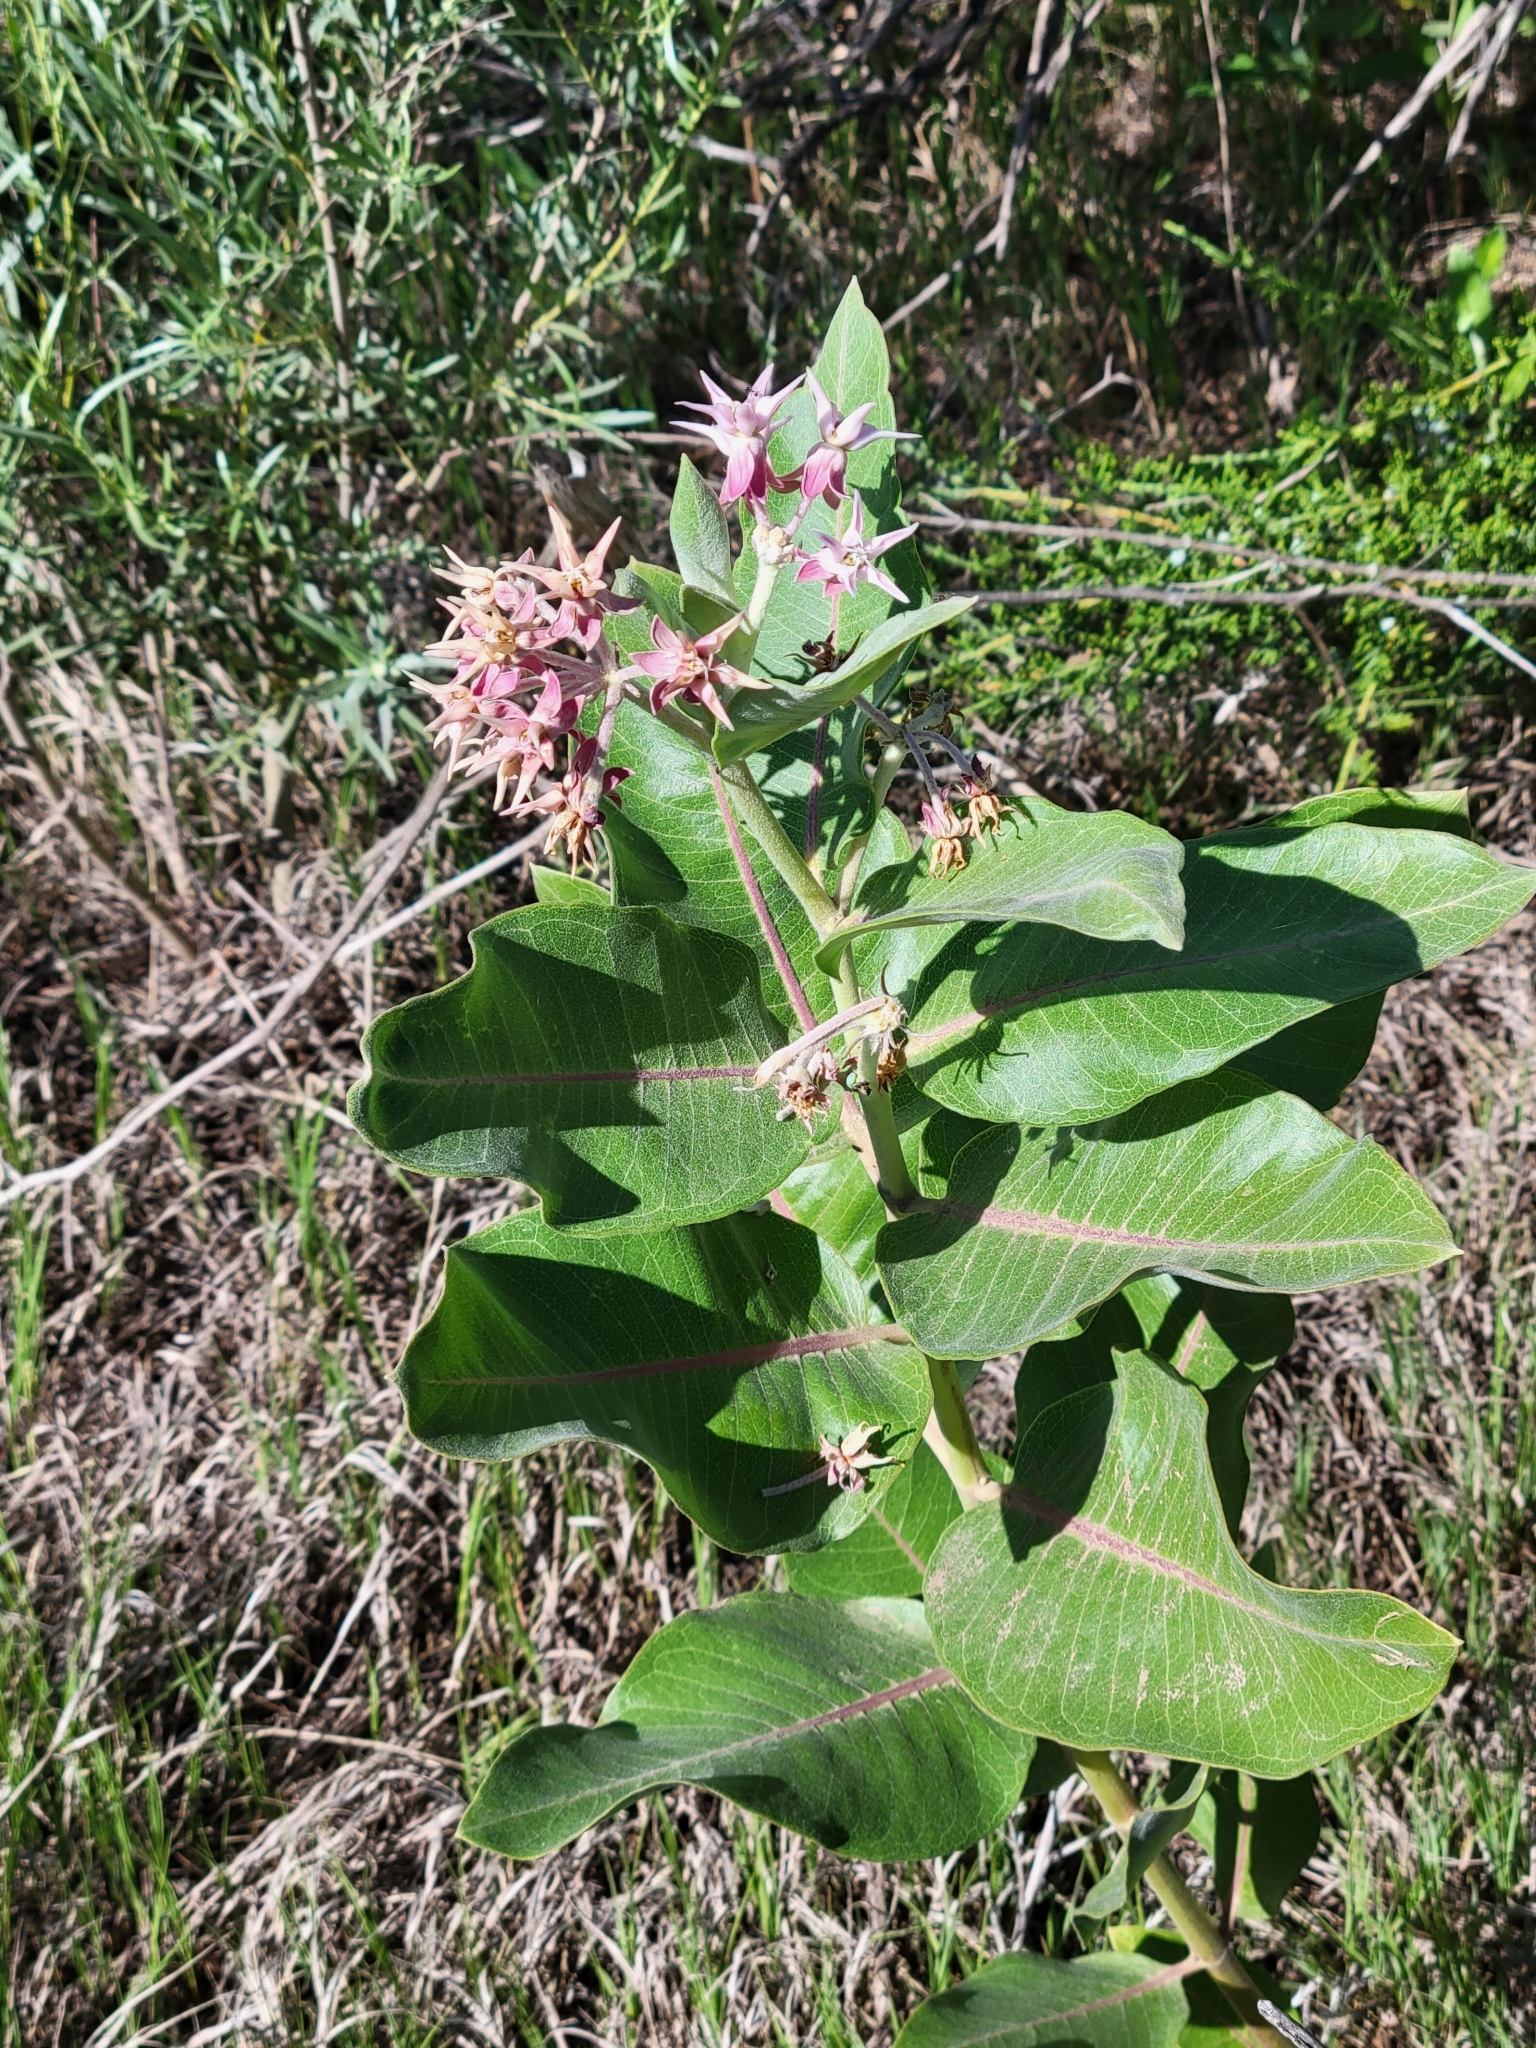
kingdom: Plantae
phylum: Tracheophyta
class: Magnoliopsida
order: Gentianales
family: Apocynaceae
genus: Asclepias
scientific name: Asclepias speciosa
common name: Showy milkweed
